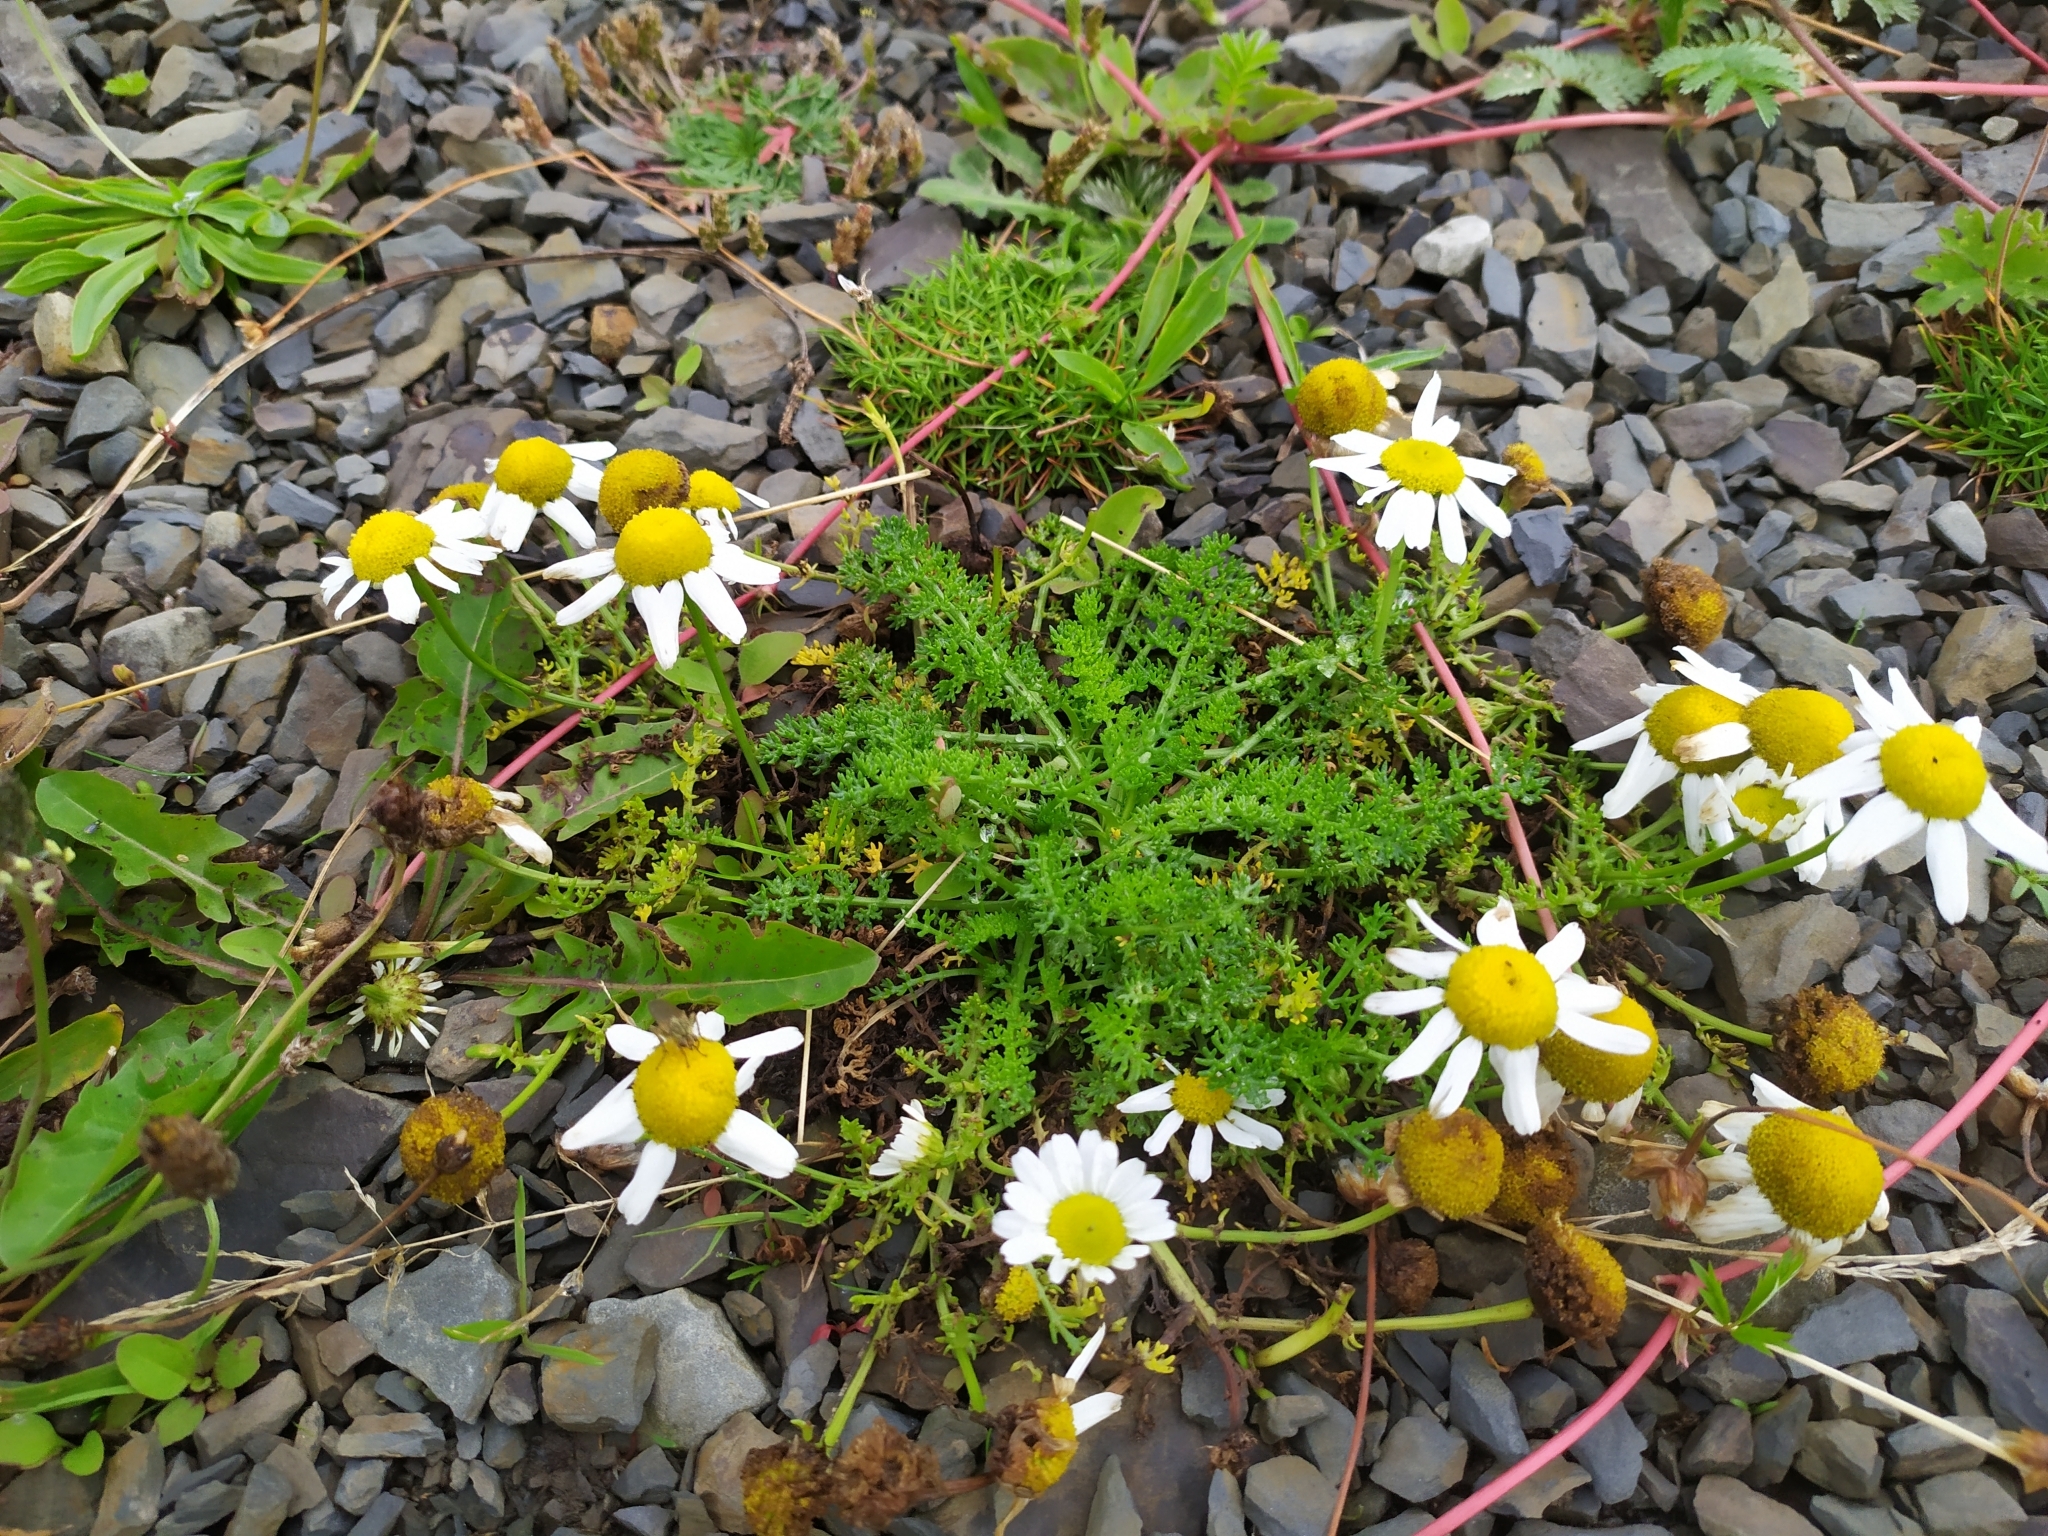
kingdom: Plantae
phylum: Tracheophyta
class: Magnoliopsida
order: Asterales
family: Asteraceae
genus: Tripleurospermum
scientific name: Tripleurospermum maritimum
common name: Sea mayweed
